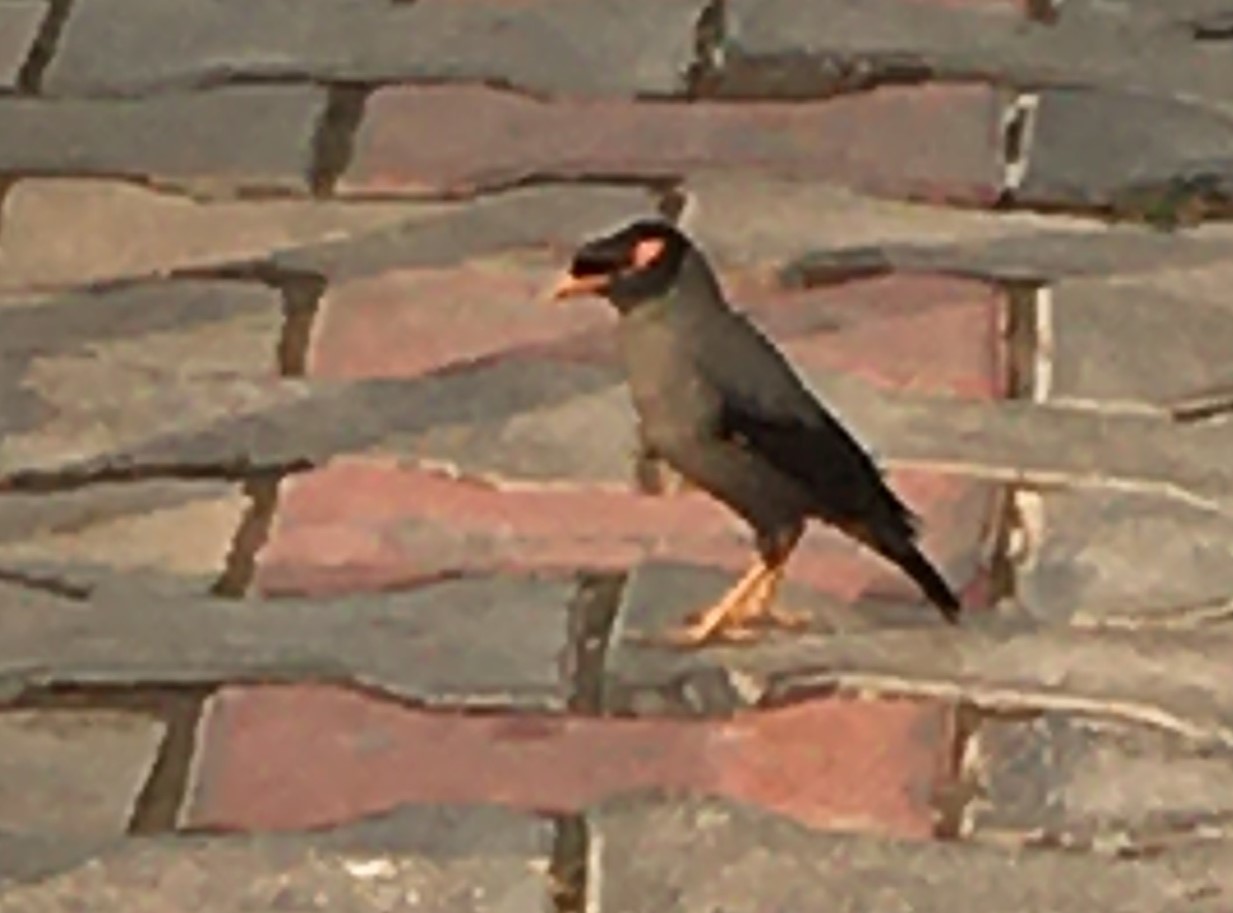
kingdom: Animalia
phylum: Chordata
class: Aves
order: Passeriformes
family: Sturnidae
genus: Acridotheres
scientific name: Acridotheres ginginianus
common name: Bank myna
